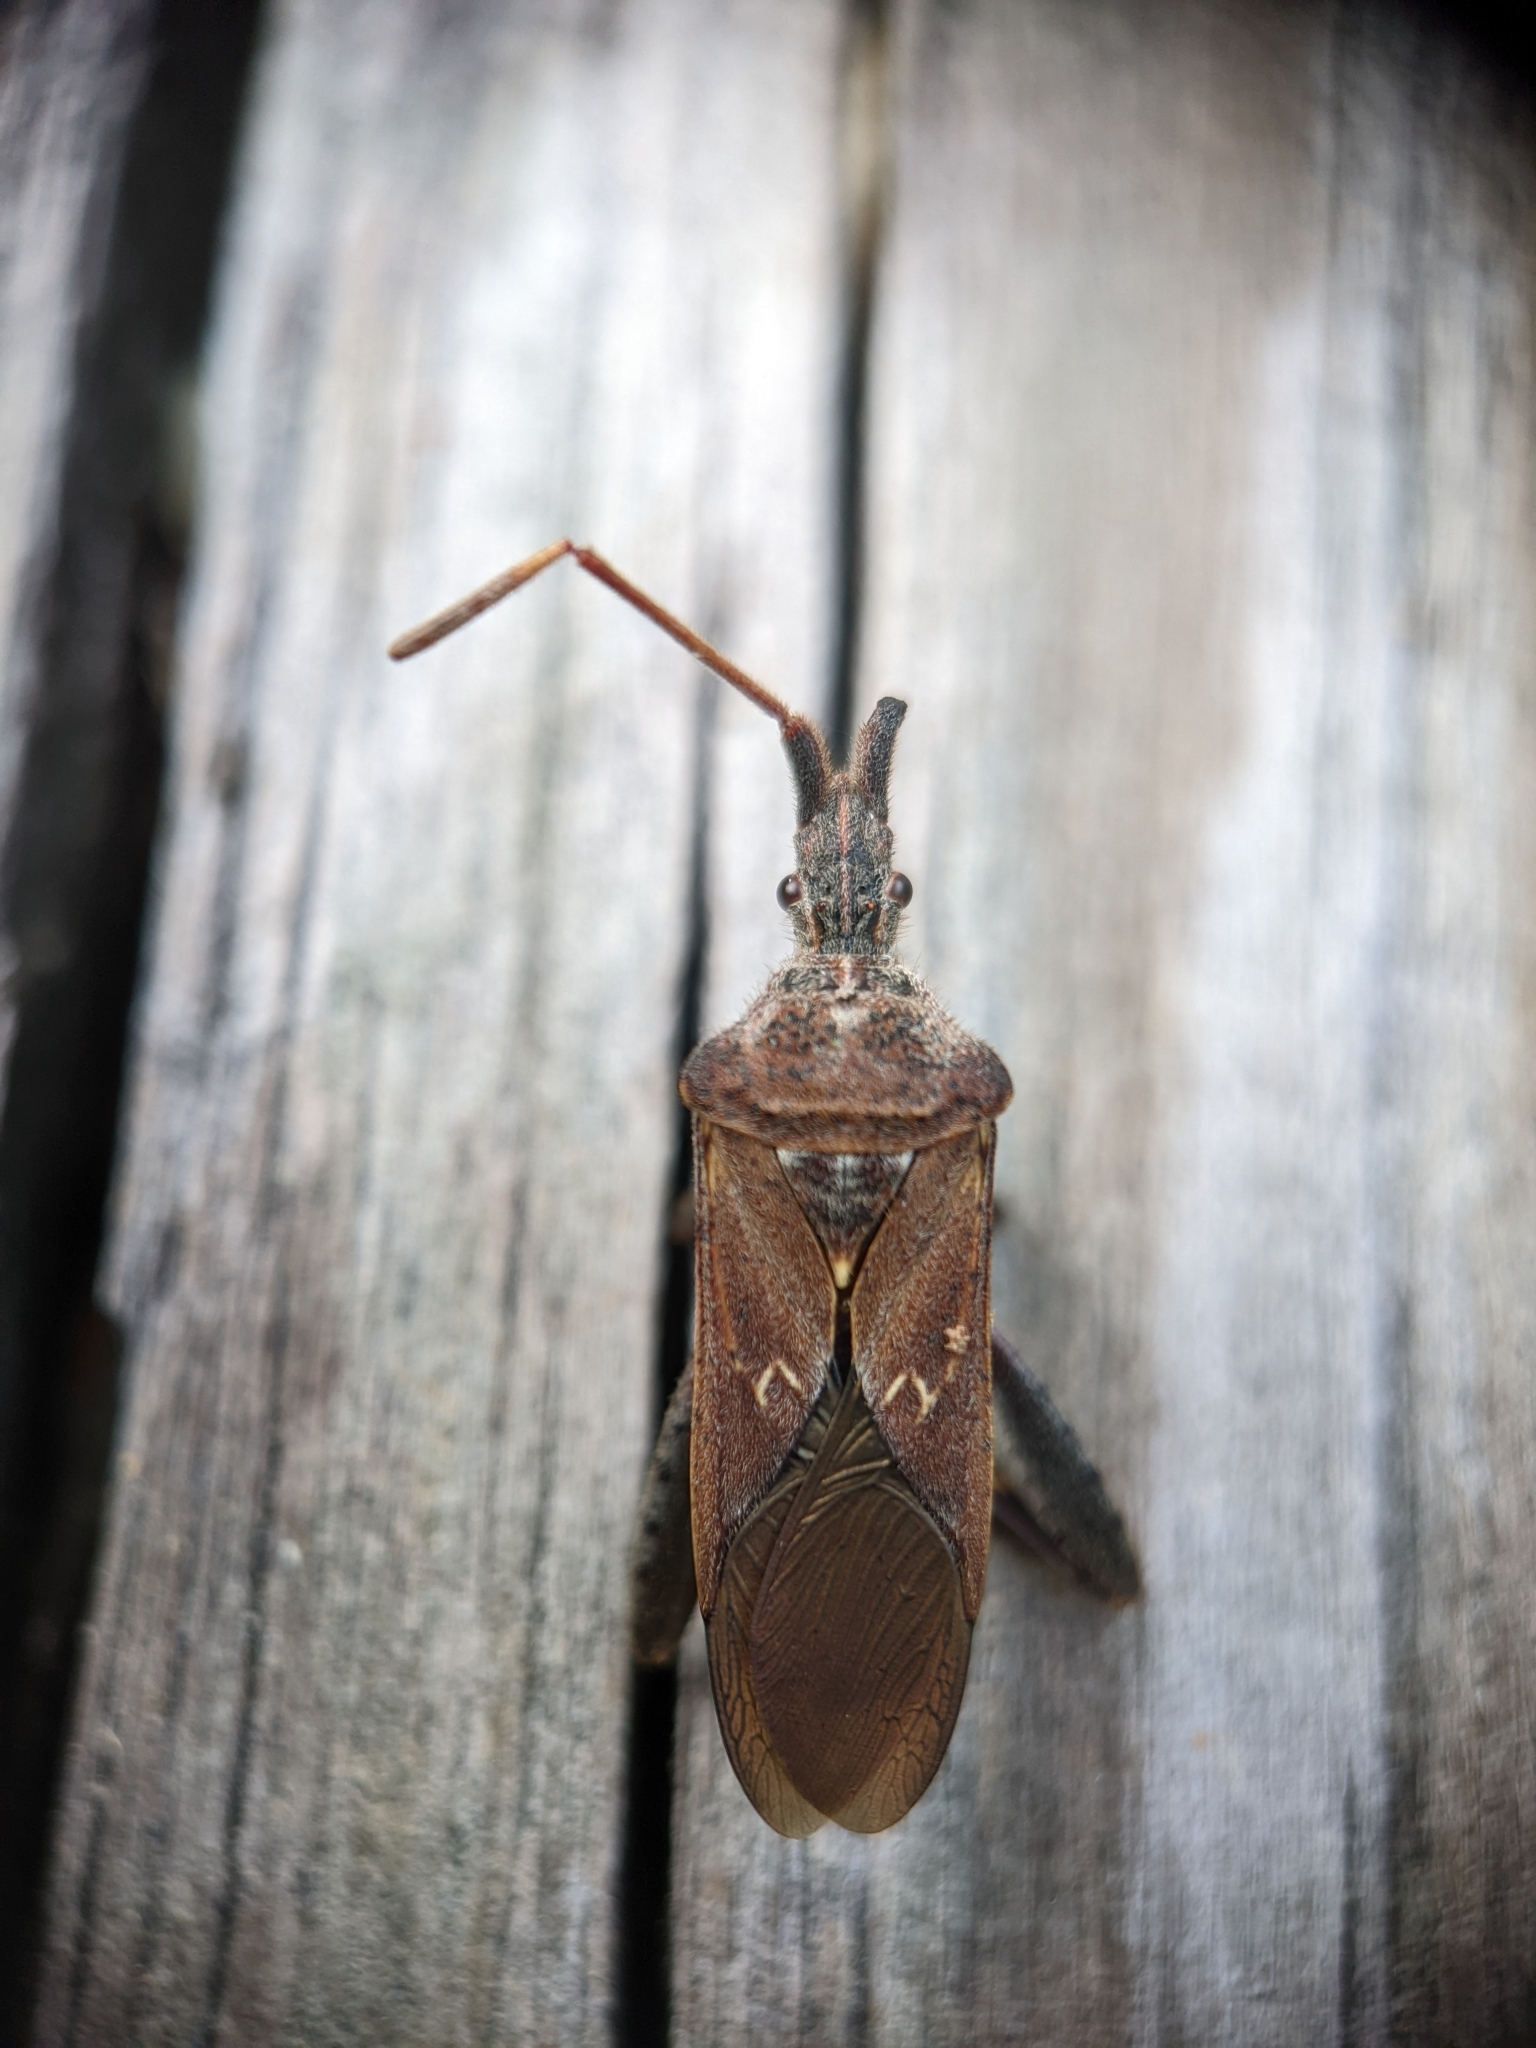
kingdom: Animalia
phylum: Arthropoda
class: Insecta
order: Hemiptera
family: Coreidae
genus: Leptoglossus
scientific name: Leptoglossus corculus
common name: Southern pine seed bug
